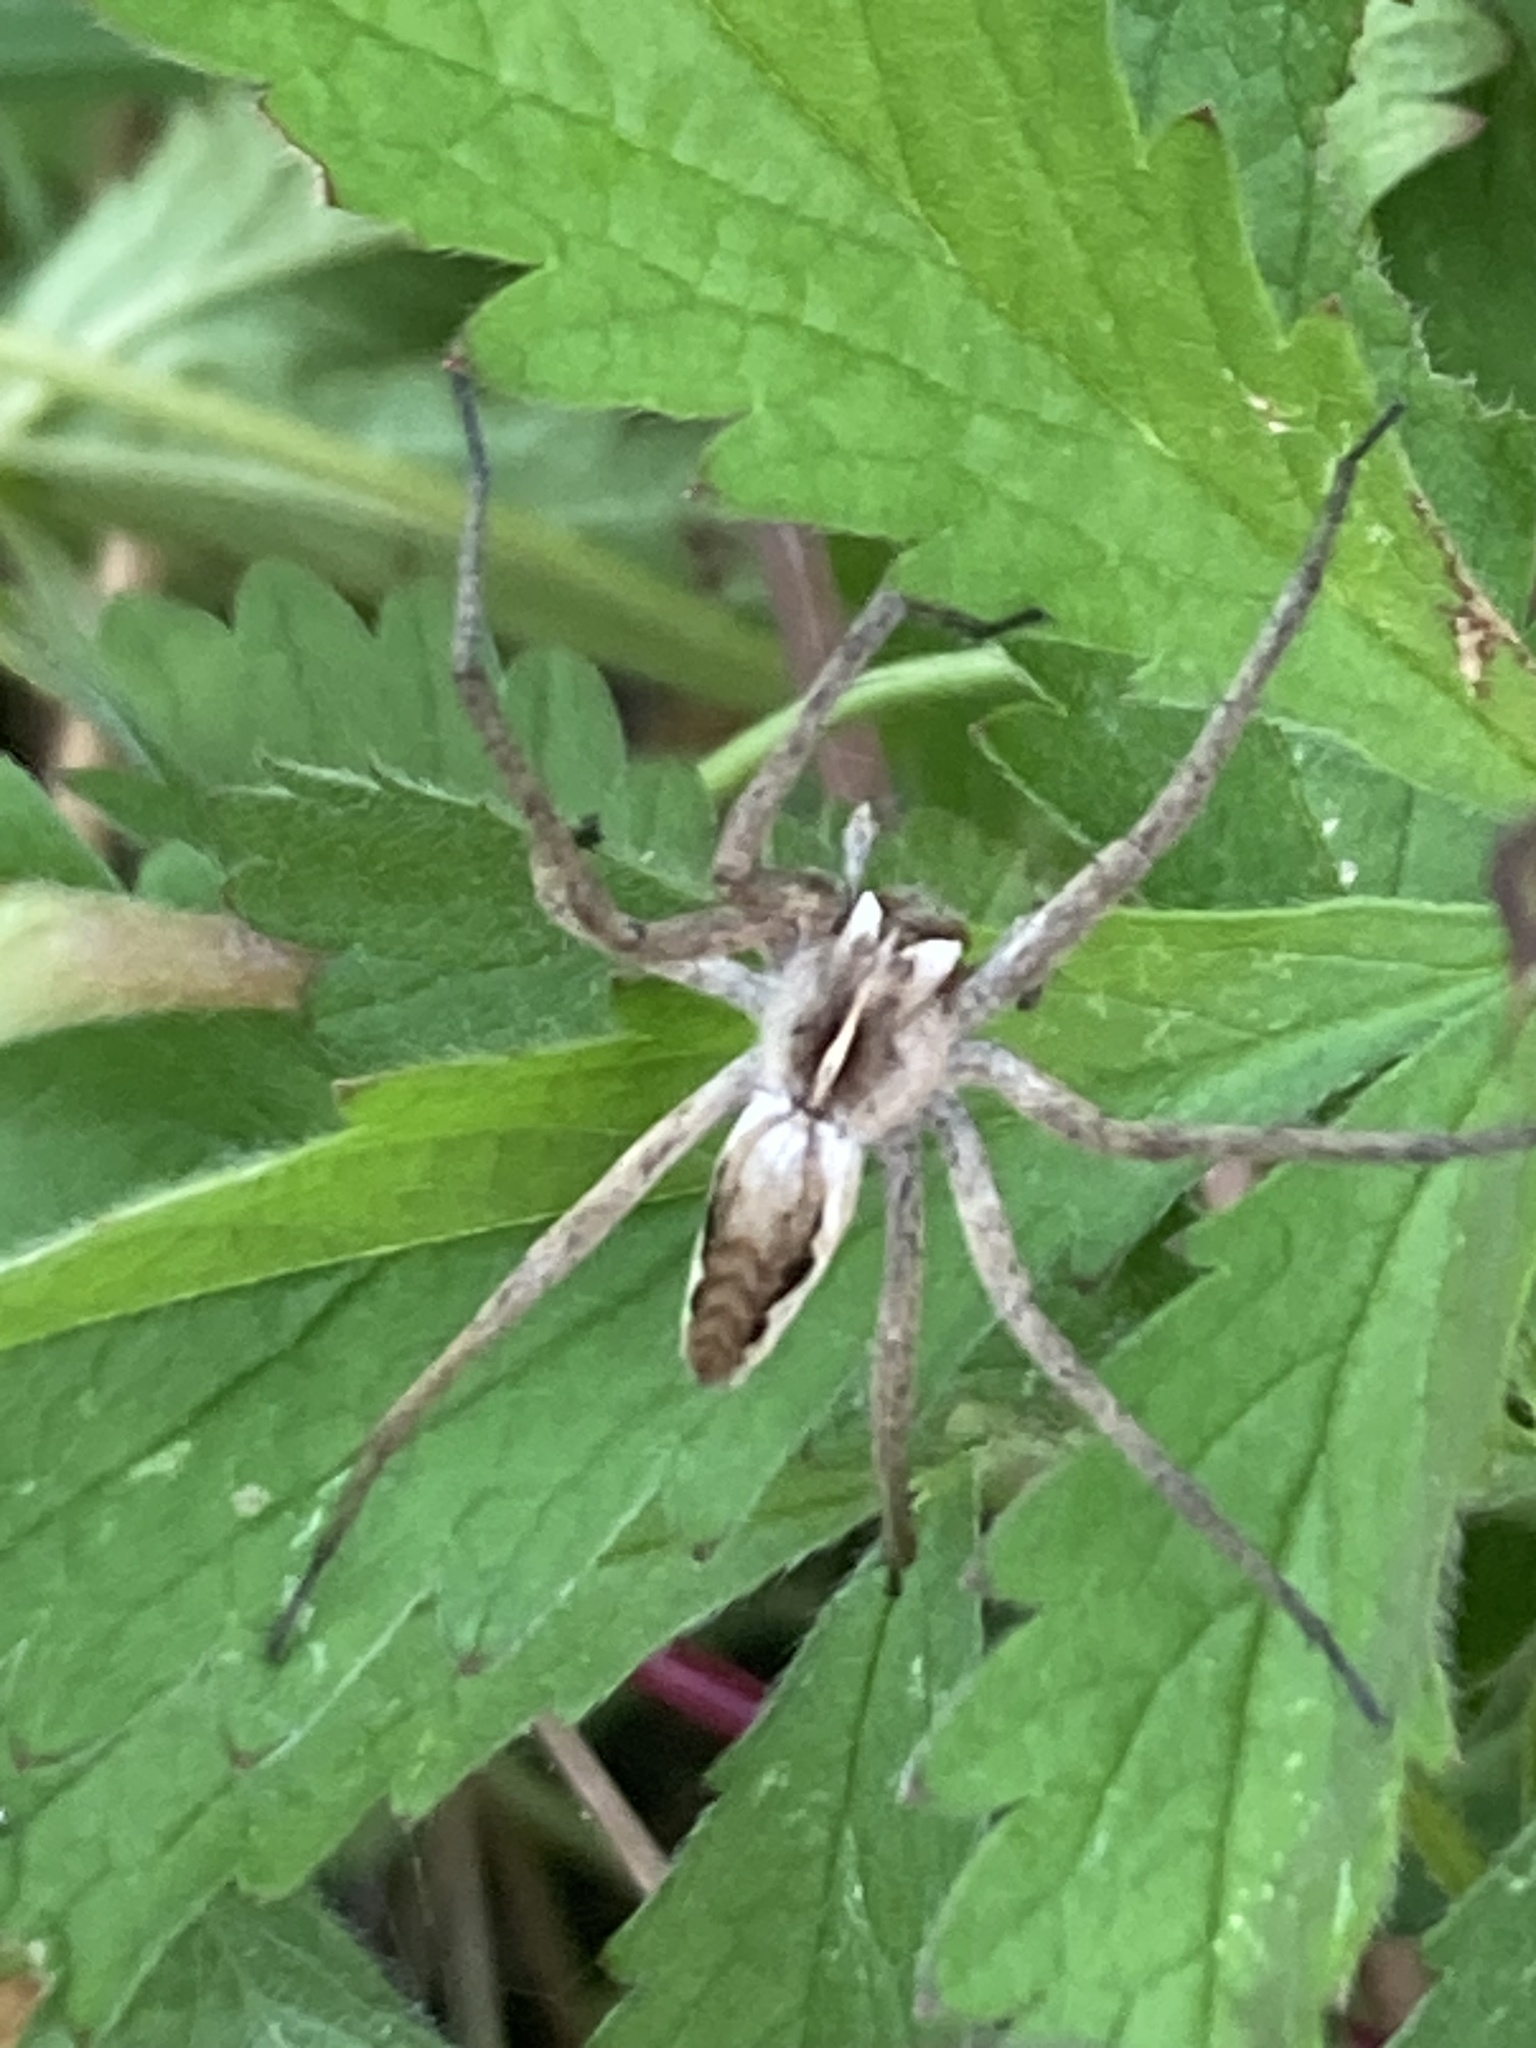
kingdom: Animalia
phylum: Arthropoda
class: Arachnida
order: Araneae
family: Pisauridae
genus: Pisaura
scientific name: Pisaura mirabilis
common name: Tent spider
